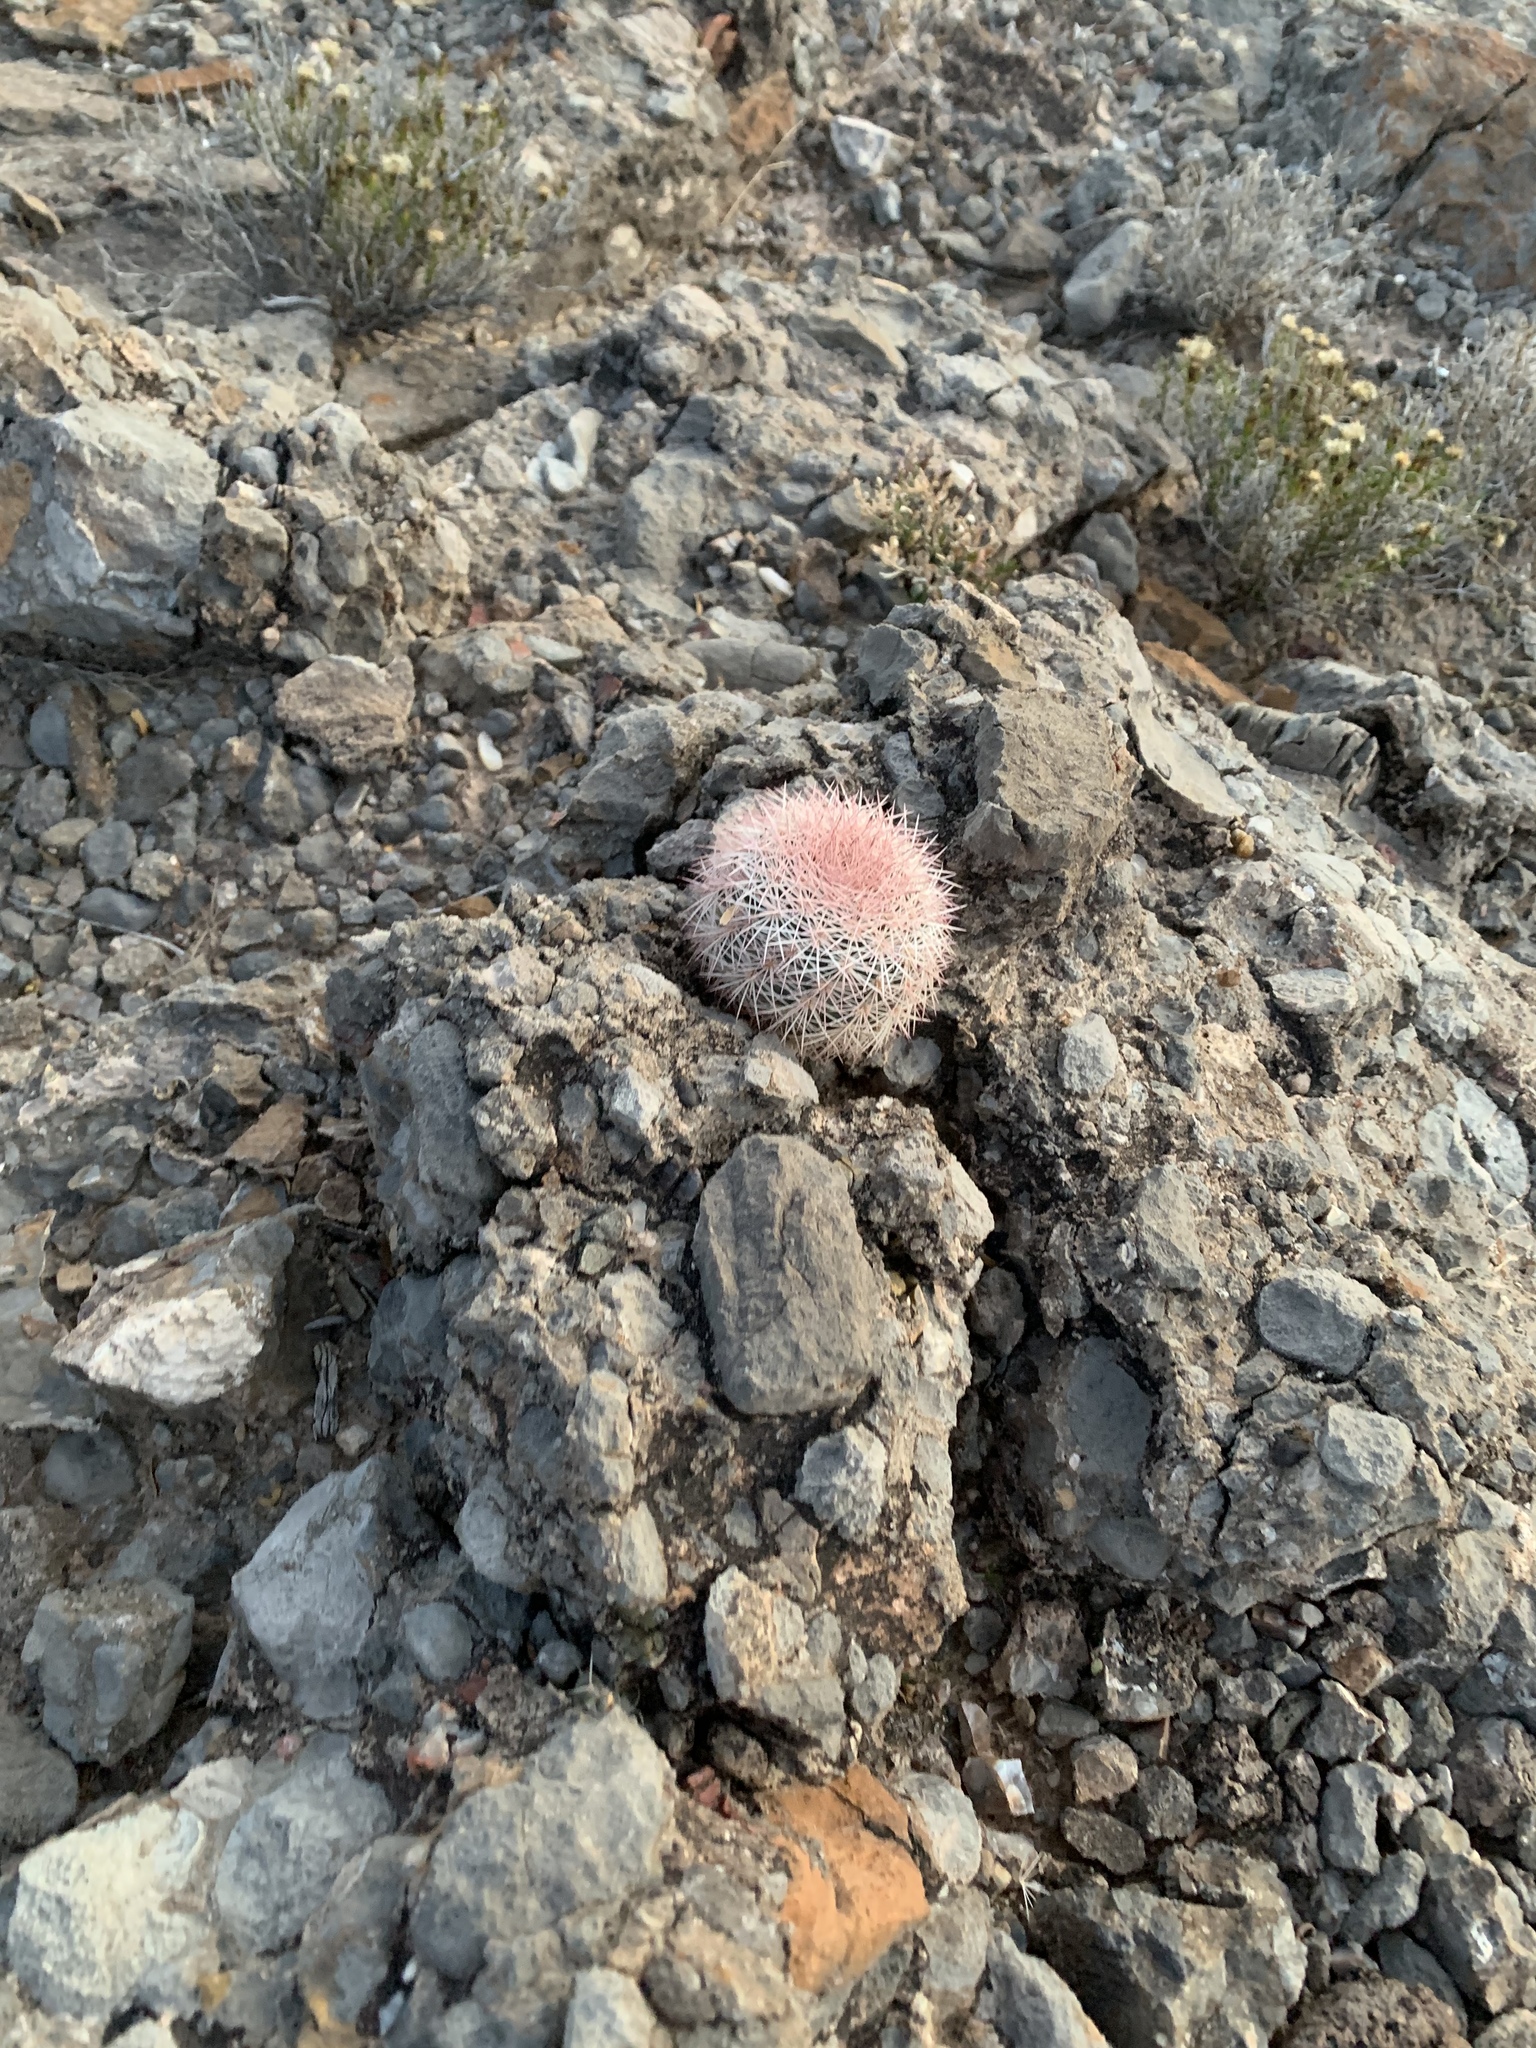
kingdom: Plantae
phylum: Tracheophyta
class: Magnoliopsida
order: Caryophyllales
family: Cactaceae
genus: Echinocereus
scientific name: Echinocereus dasyacanthus
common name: Spiny hedgehog cactus
